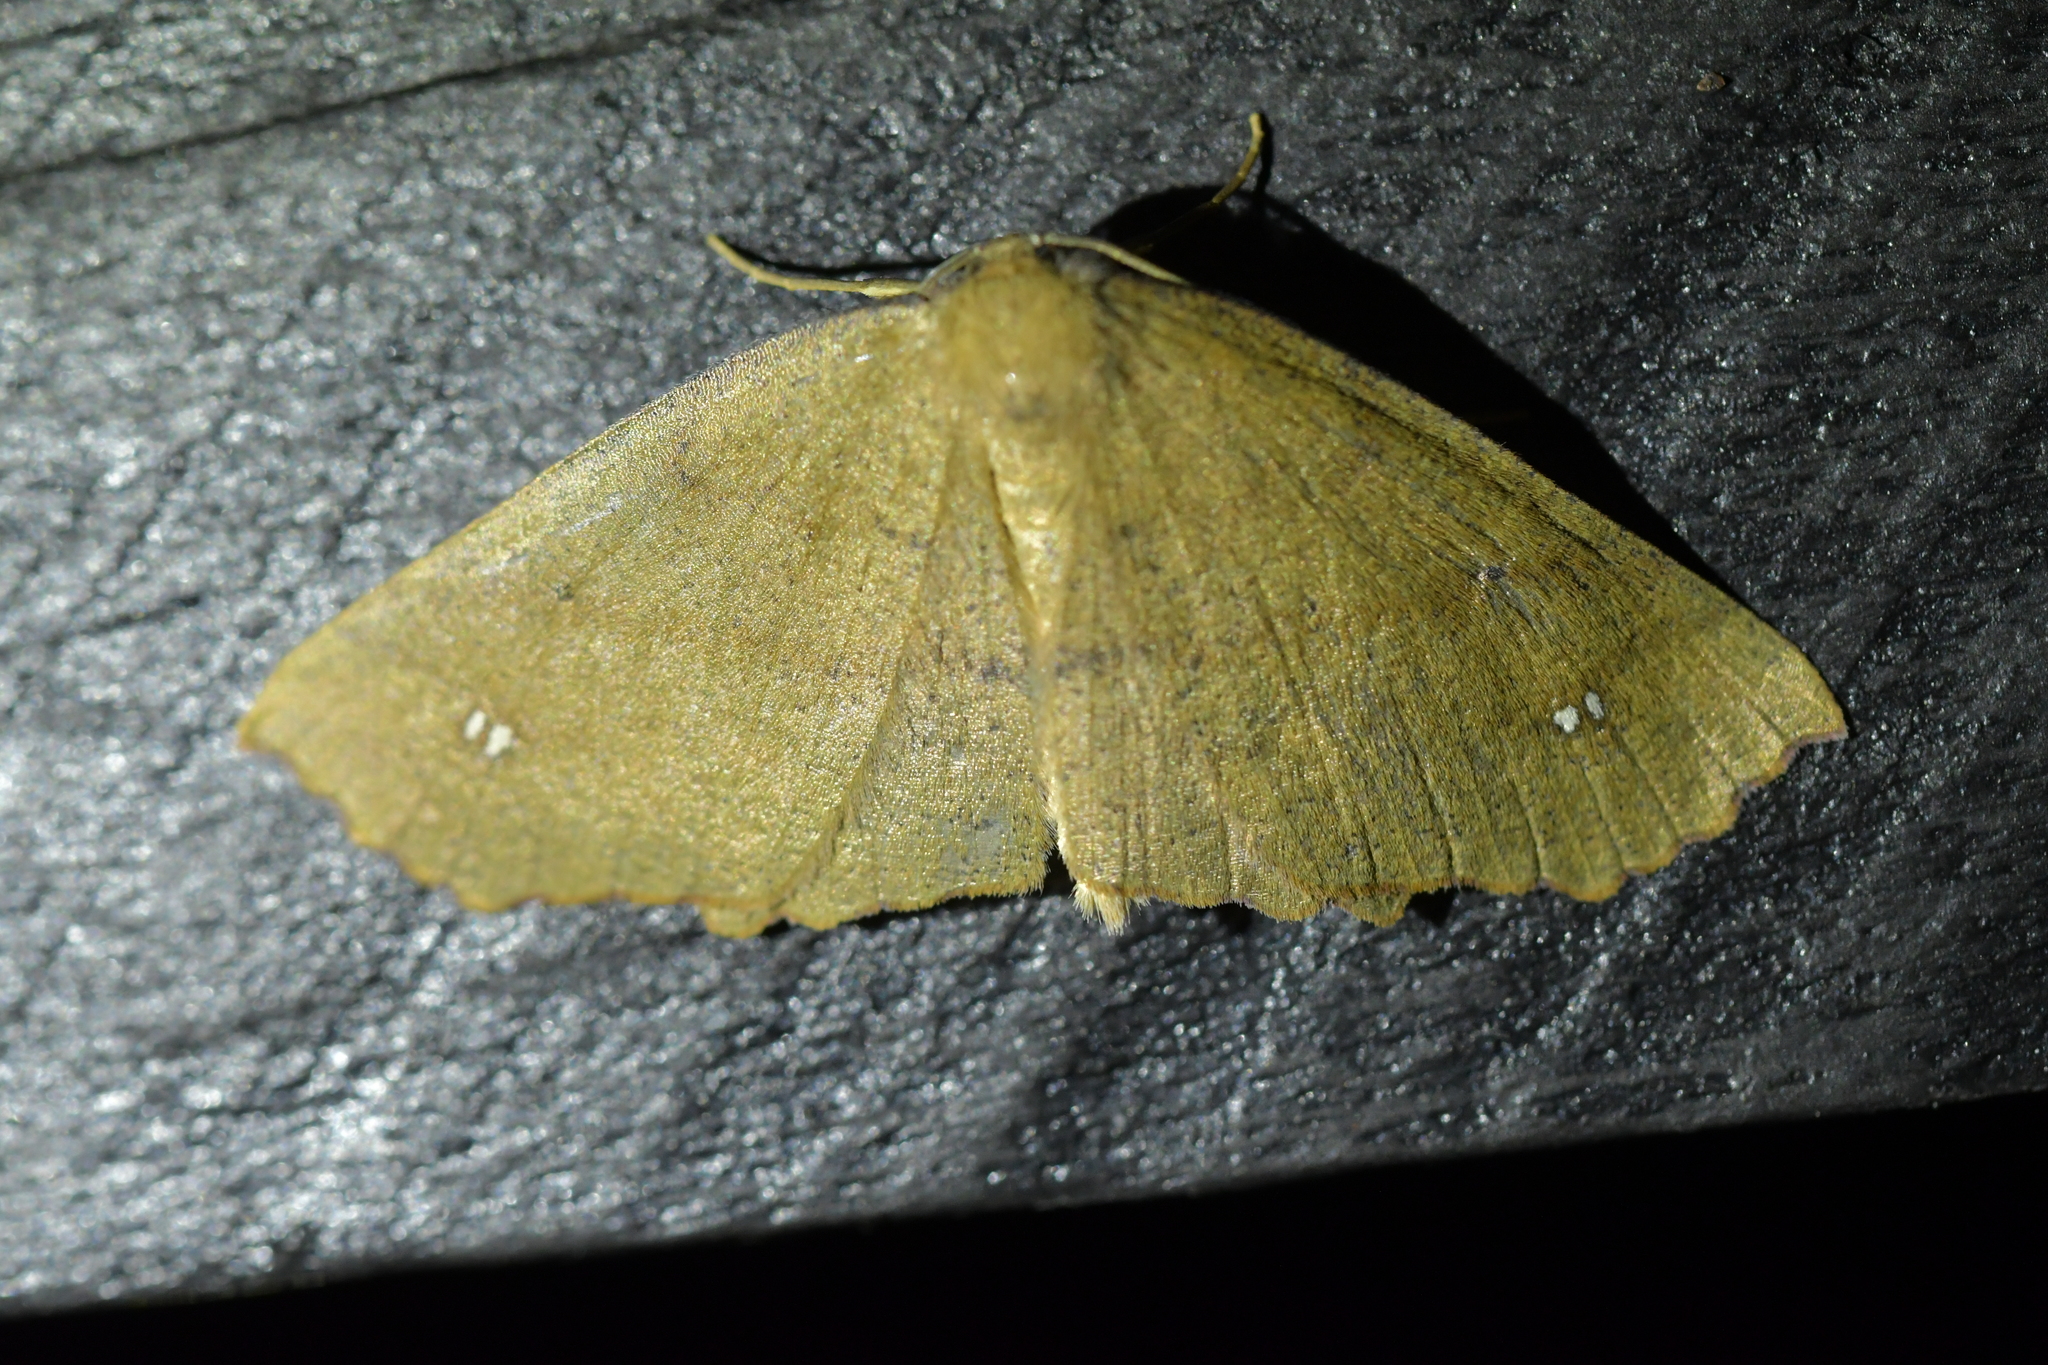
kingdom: Animalia
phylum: Arthropoda
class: Insecta
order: Lepidoptera
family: Geometridae
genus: Xyridacma
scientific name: Xyridacma ustaria
